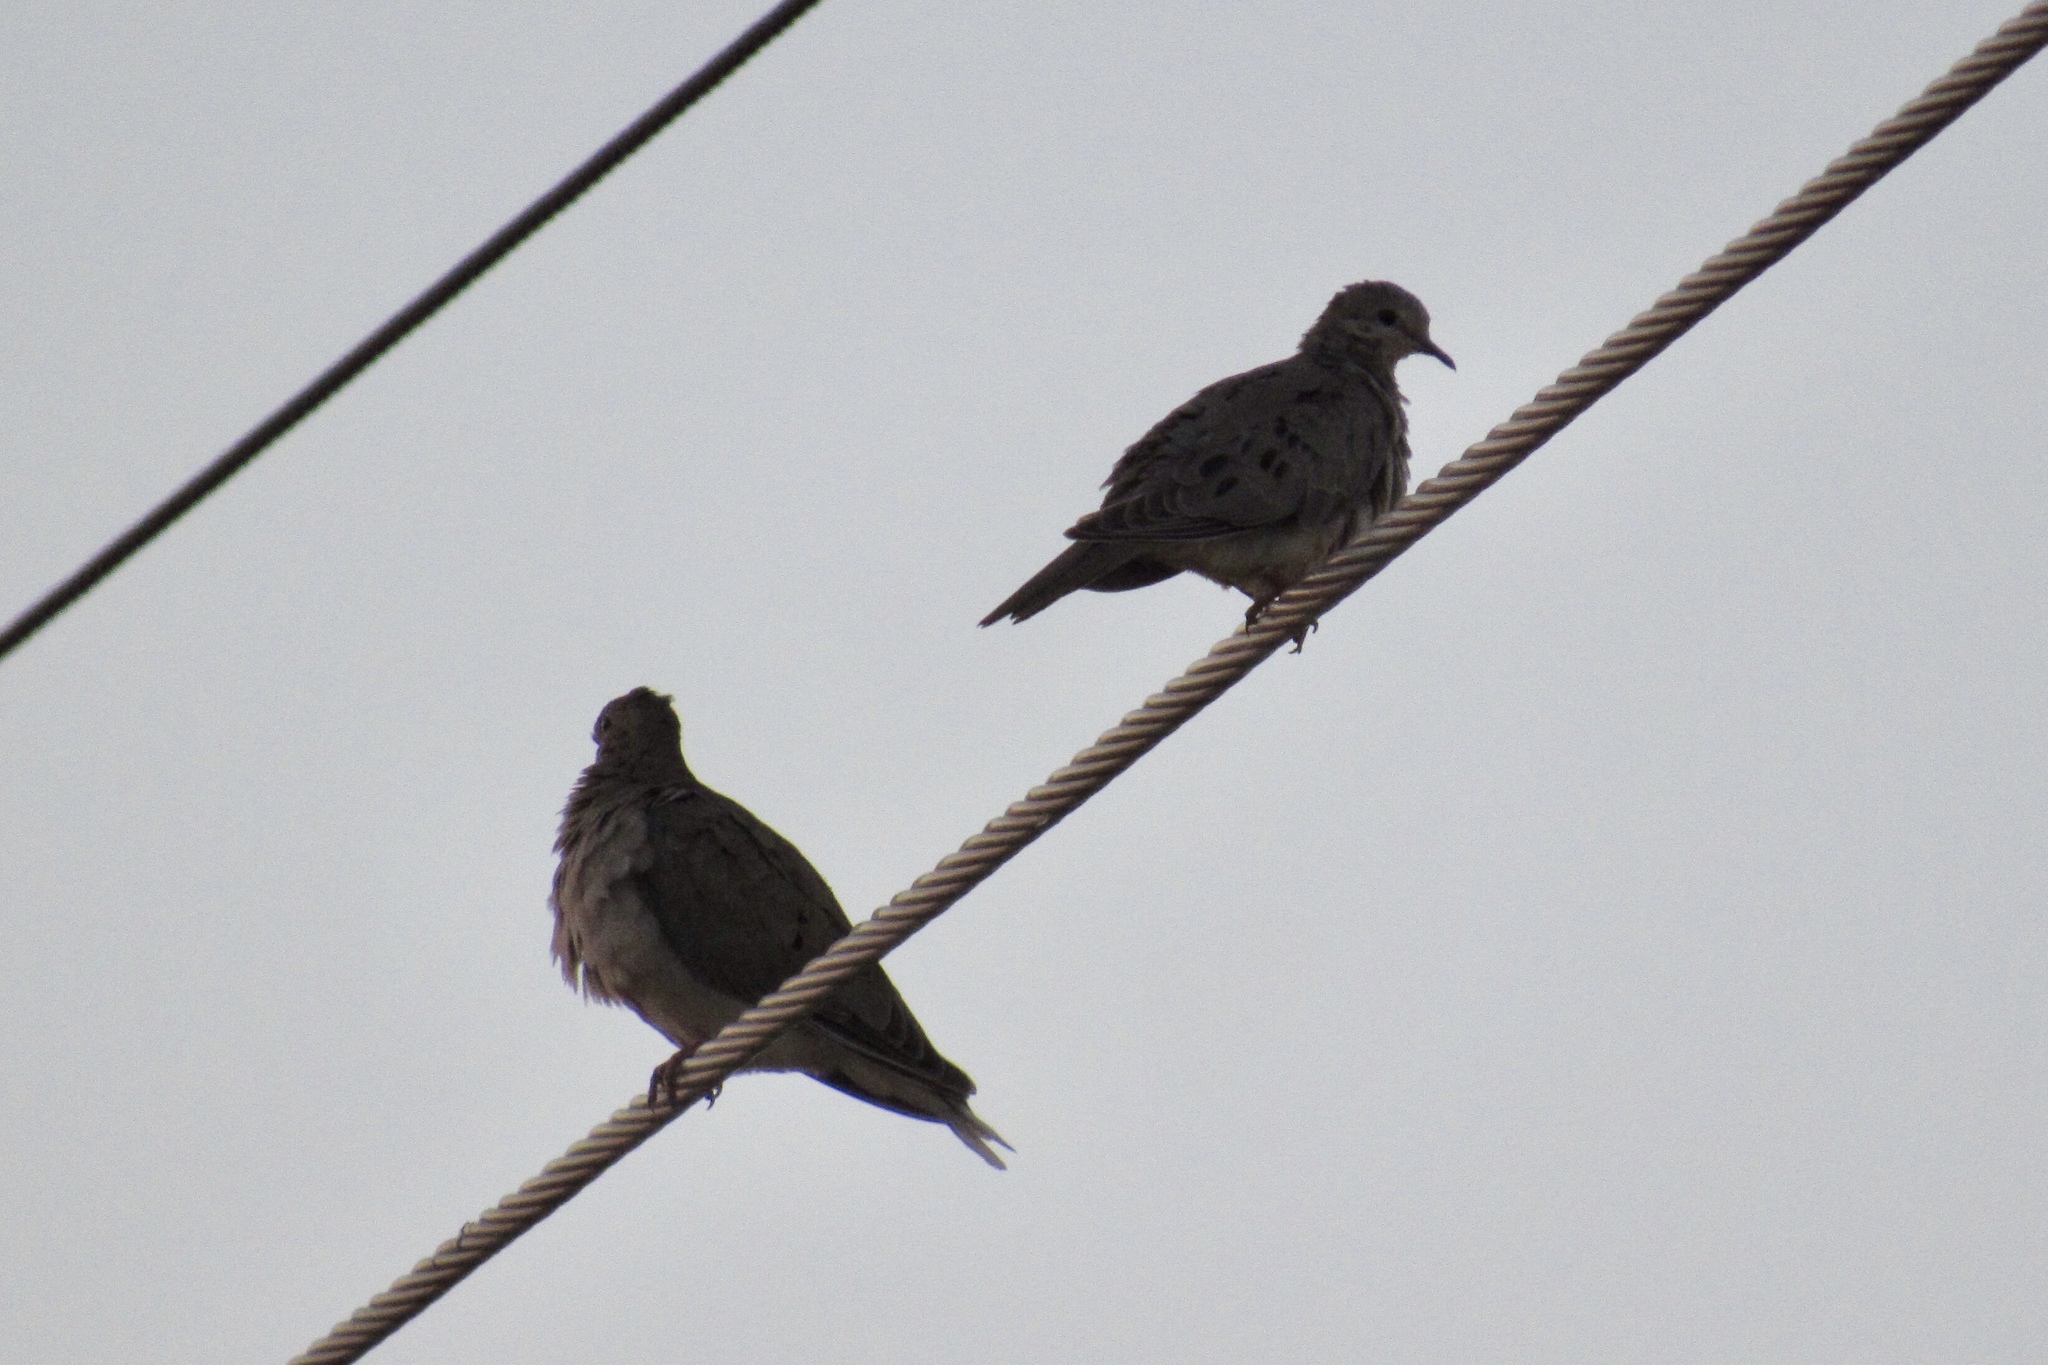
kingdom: Animalia
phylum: Chordata
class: Aves
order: Columbiformes
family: Columbidae
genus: Zenaida
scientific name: Zenaida macroura
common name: Mourning dove
